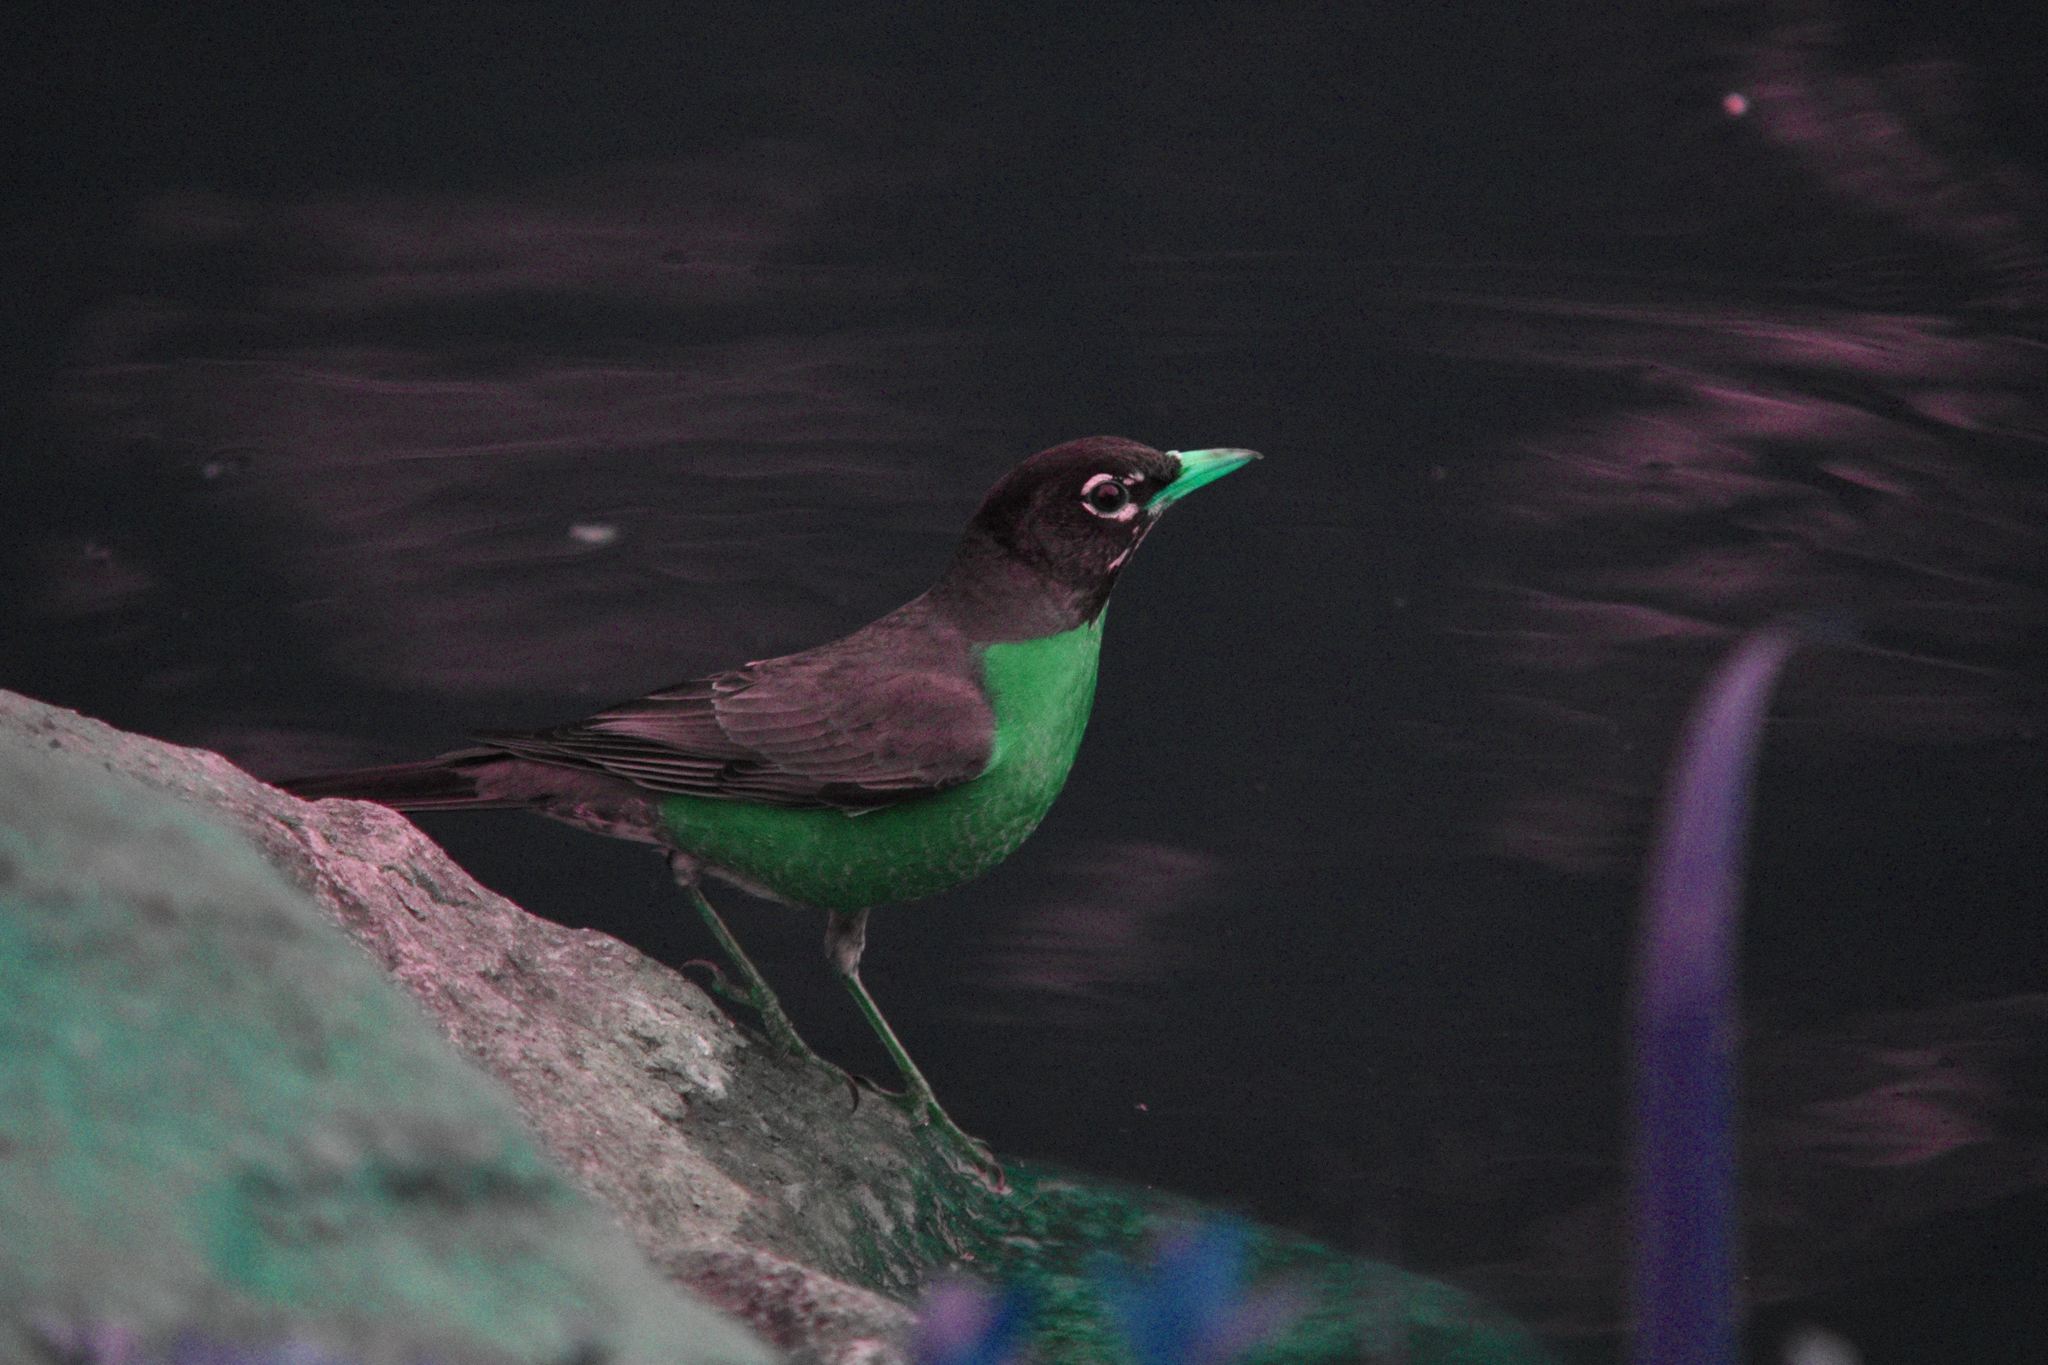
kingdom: Animalia
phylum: Chordata
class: Aves
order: Passeriformes
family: Turdidae
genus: Turdus
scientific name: Turdus migratorius
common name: American robin
